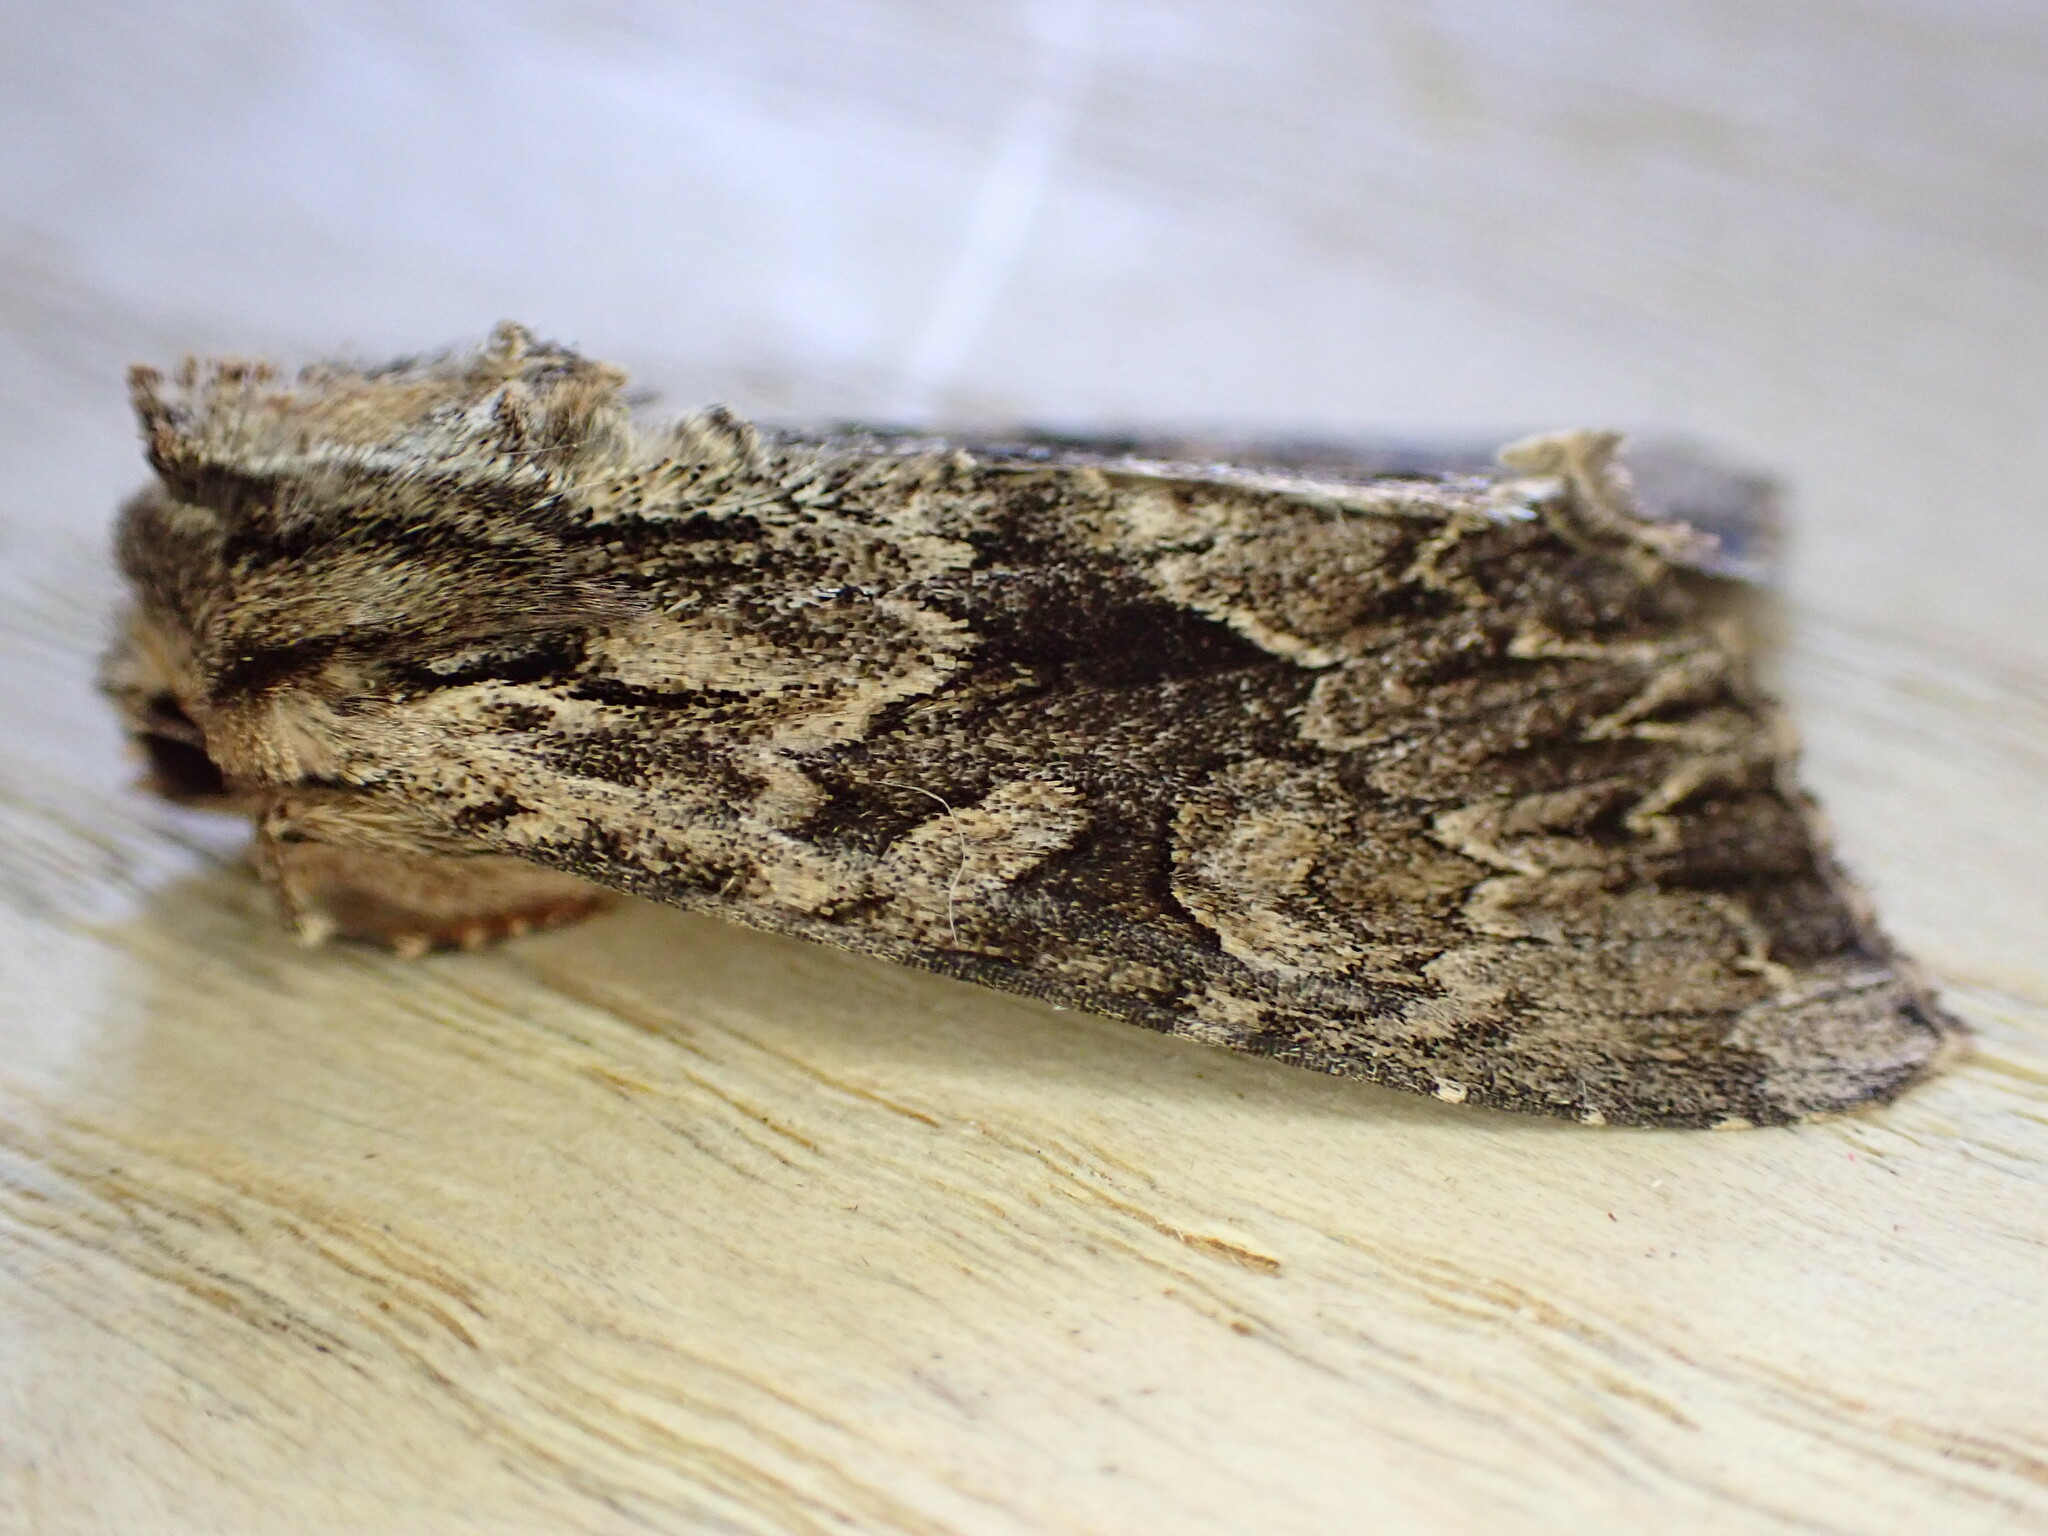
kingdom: Animalia
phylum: Arthropoda
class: Insecta
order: Lepidoptera
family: Noctuidae
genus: Apamea
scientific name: Apamea monoglypha
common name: Dark arches
